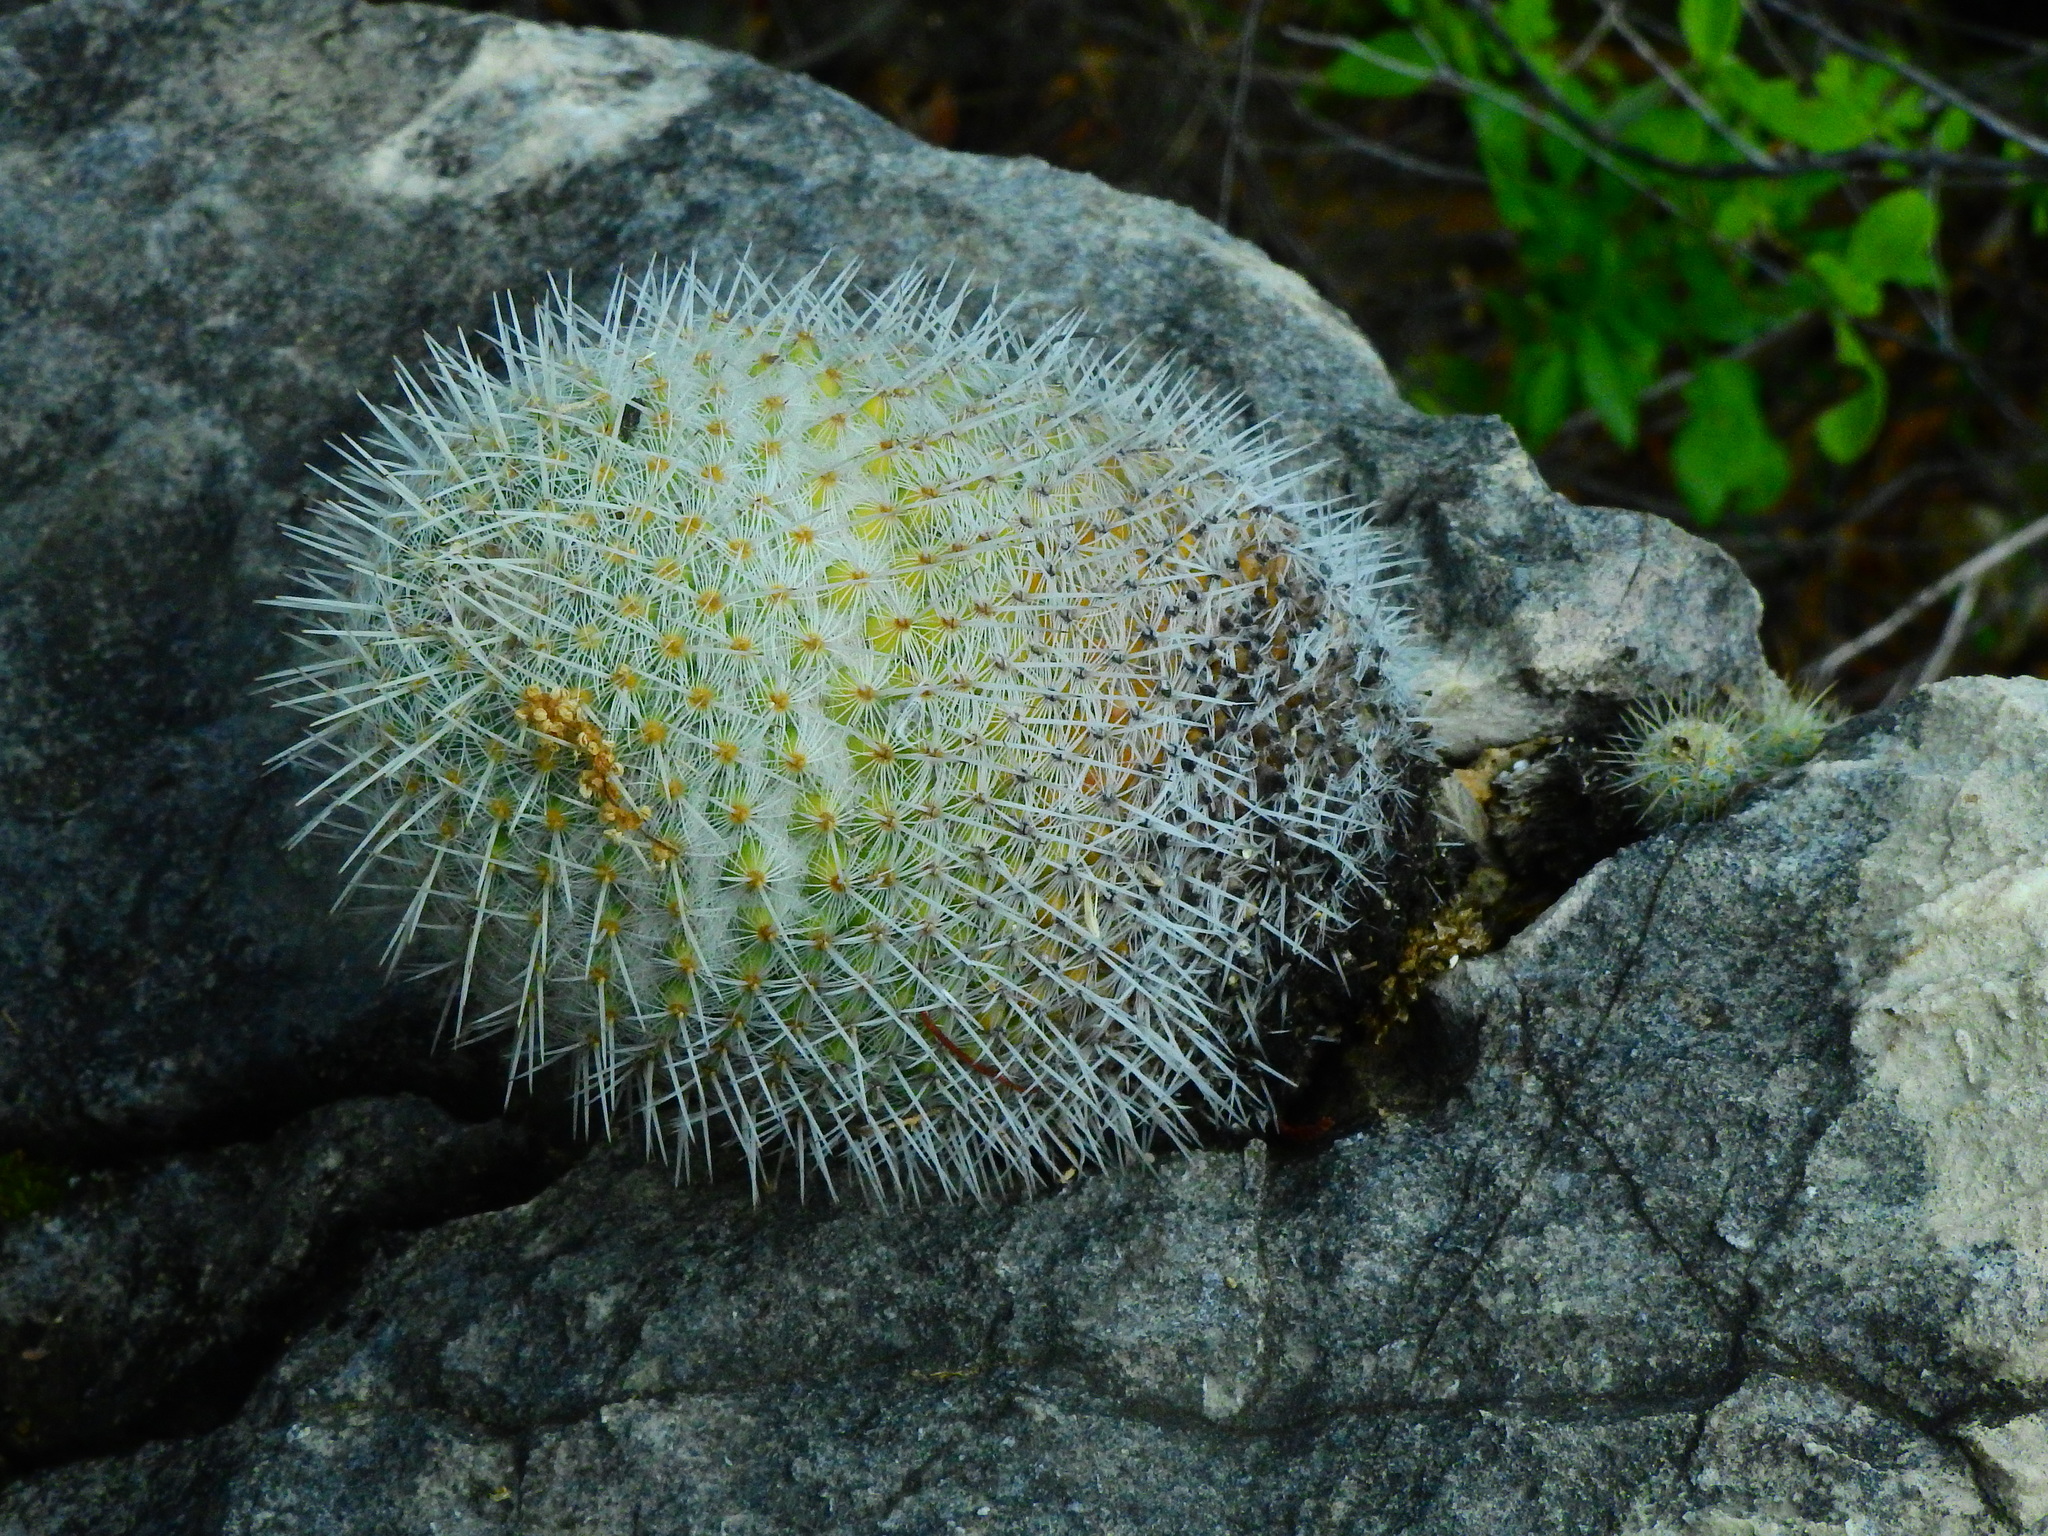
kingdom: Plantae
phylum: Tracheophyta
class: Magnoliopsida
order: Caryophyllales
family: Cactaceae
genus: Mammillaria
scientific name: Mammillaria albilanata
